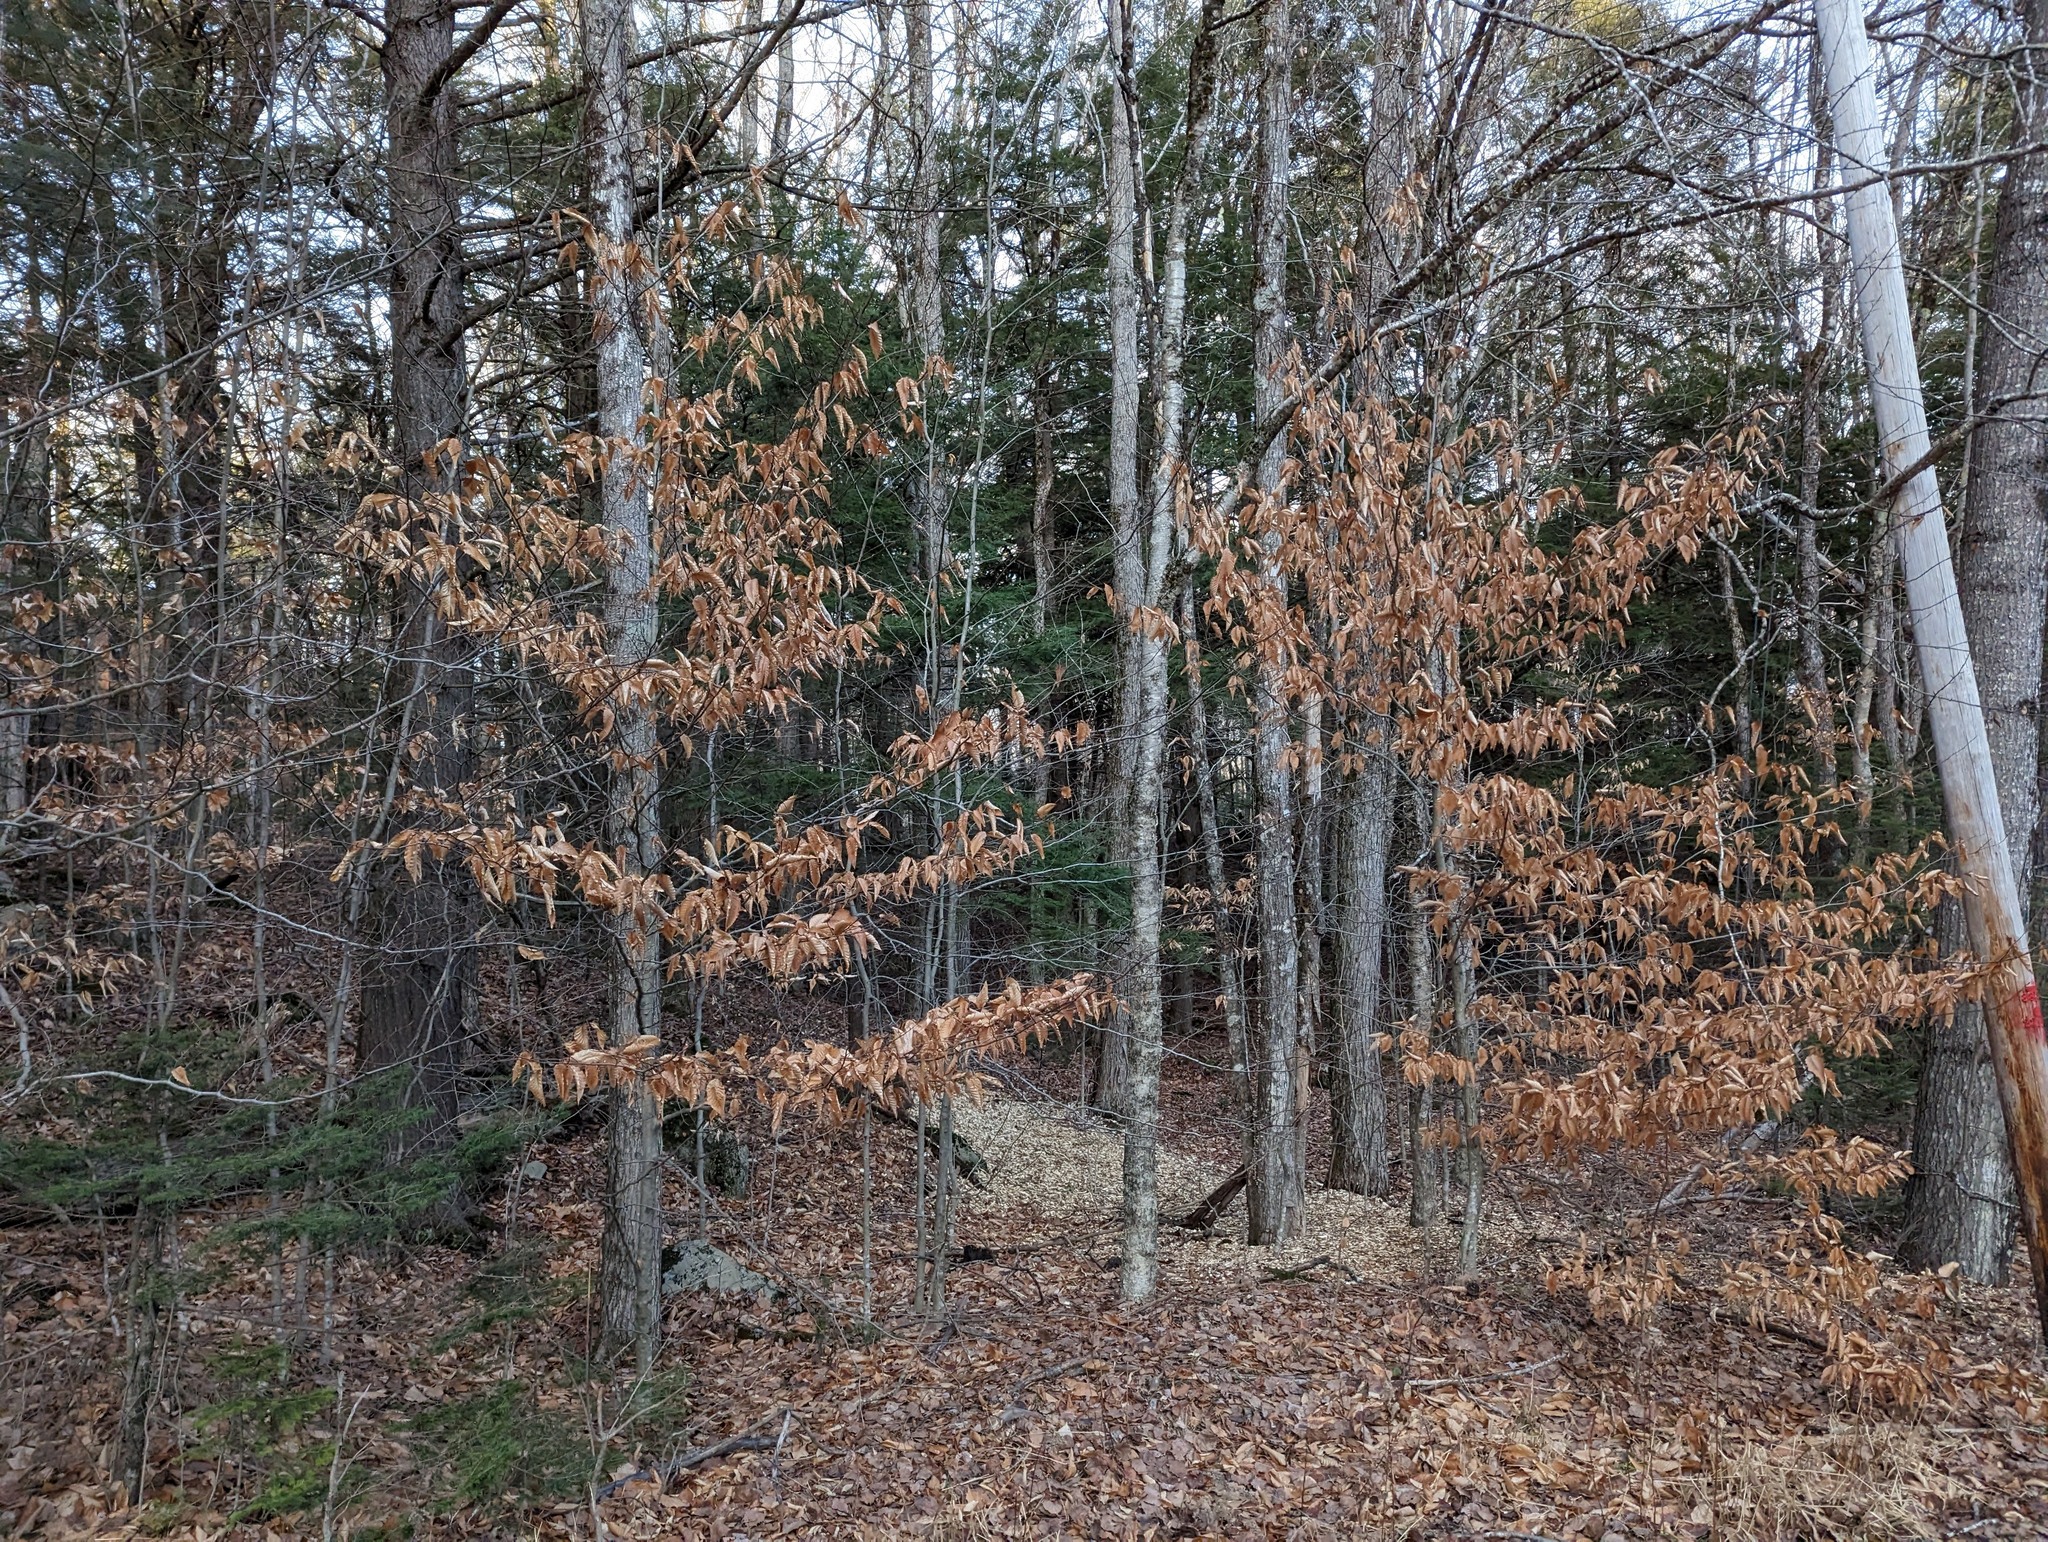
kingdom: Plantae
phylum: Tracheophyta
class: Magnoliopsida
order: Fagales
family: Fagaceae
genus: Fagus
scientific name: Fagus grandifolia
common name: American beech
